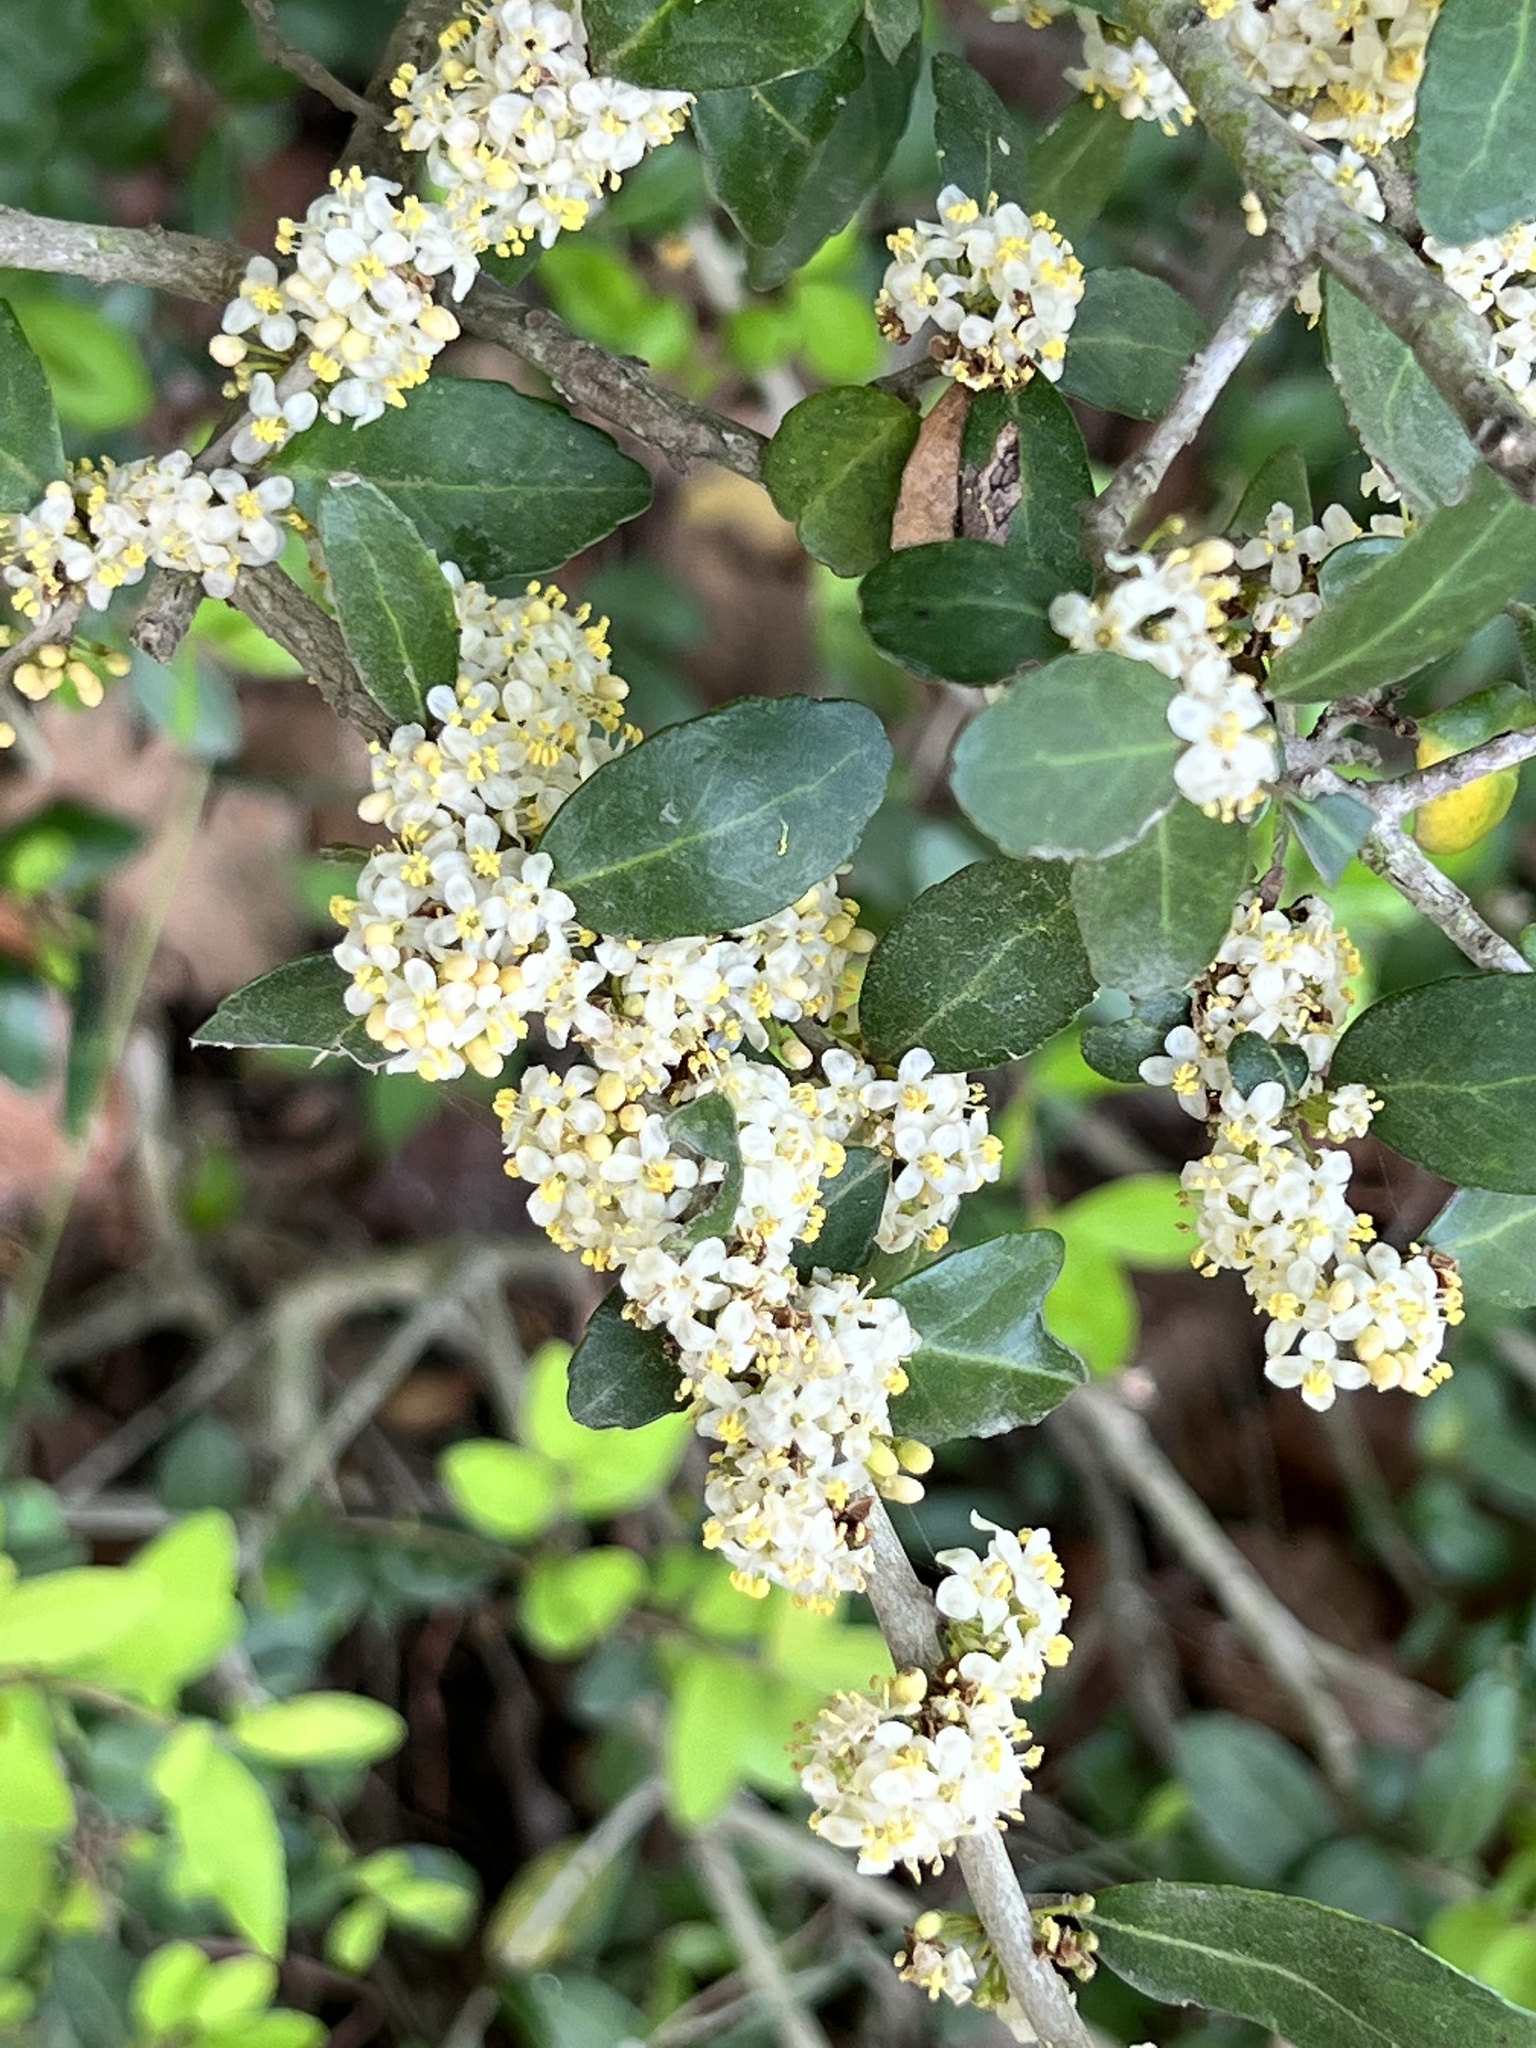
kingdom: Plantae
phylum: Tracheophyta
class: Magnoliopsida
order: Aquifoliales
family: Aquifoliaceae
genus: Ilex
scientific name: Ilex vomitoria
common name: Yaupon holly
